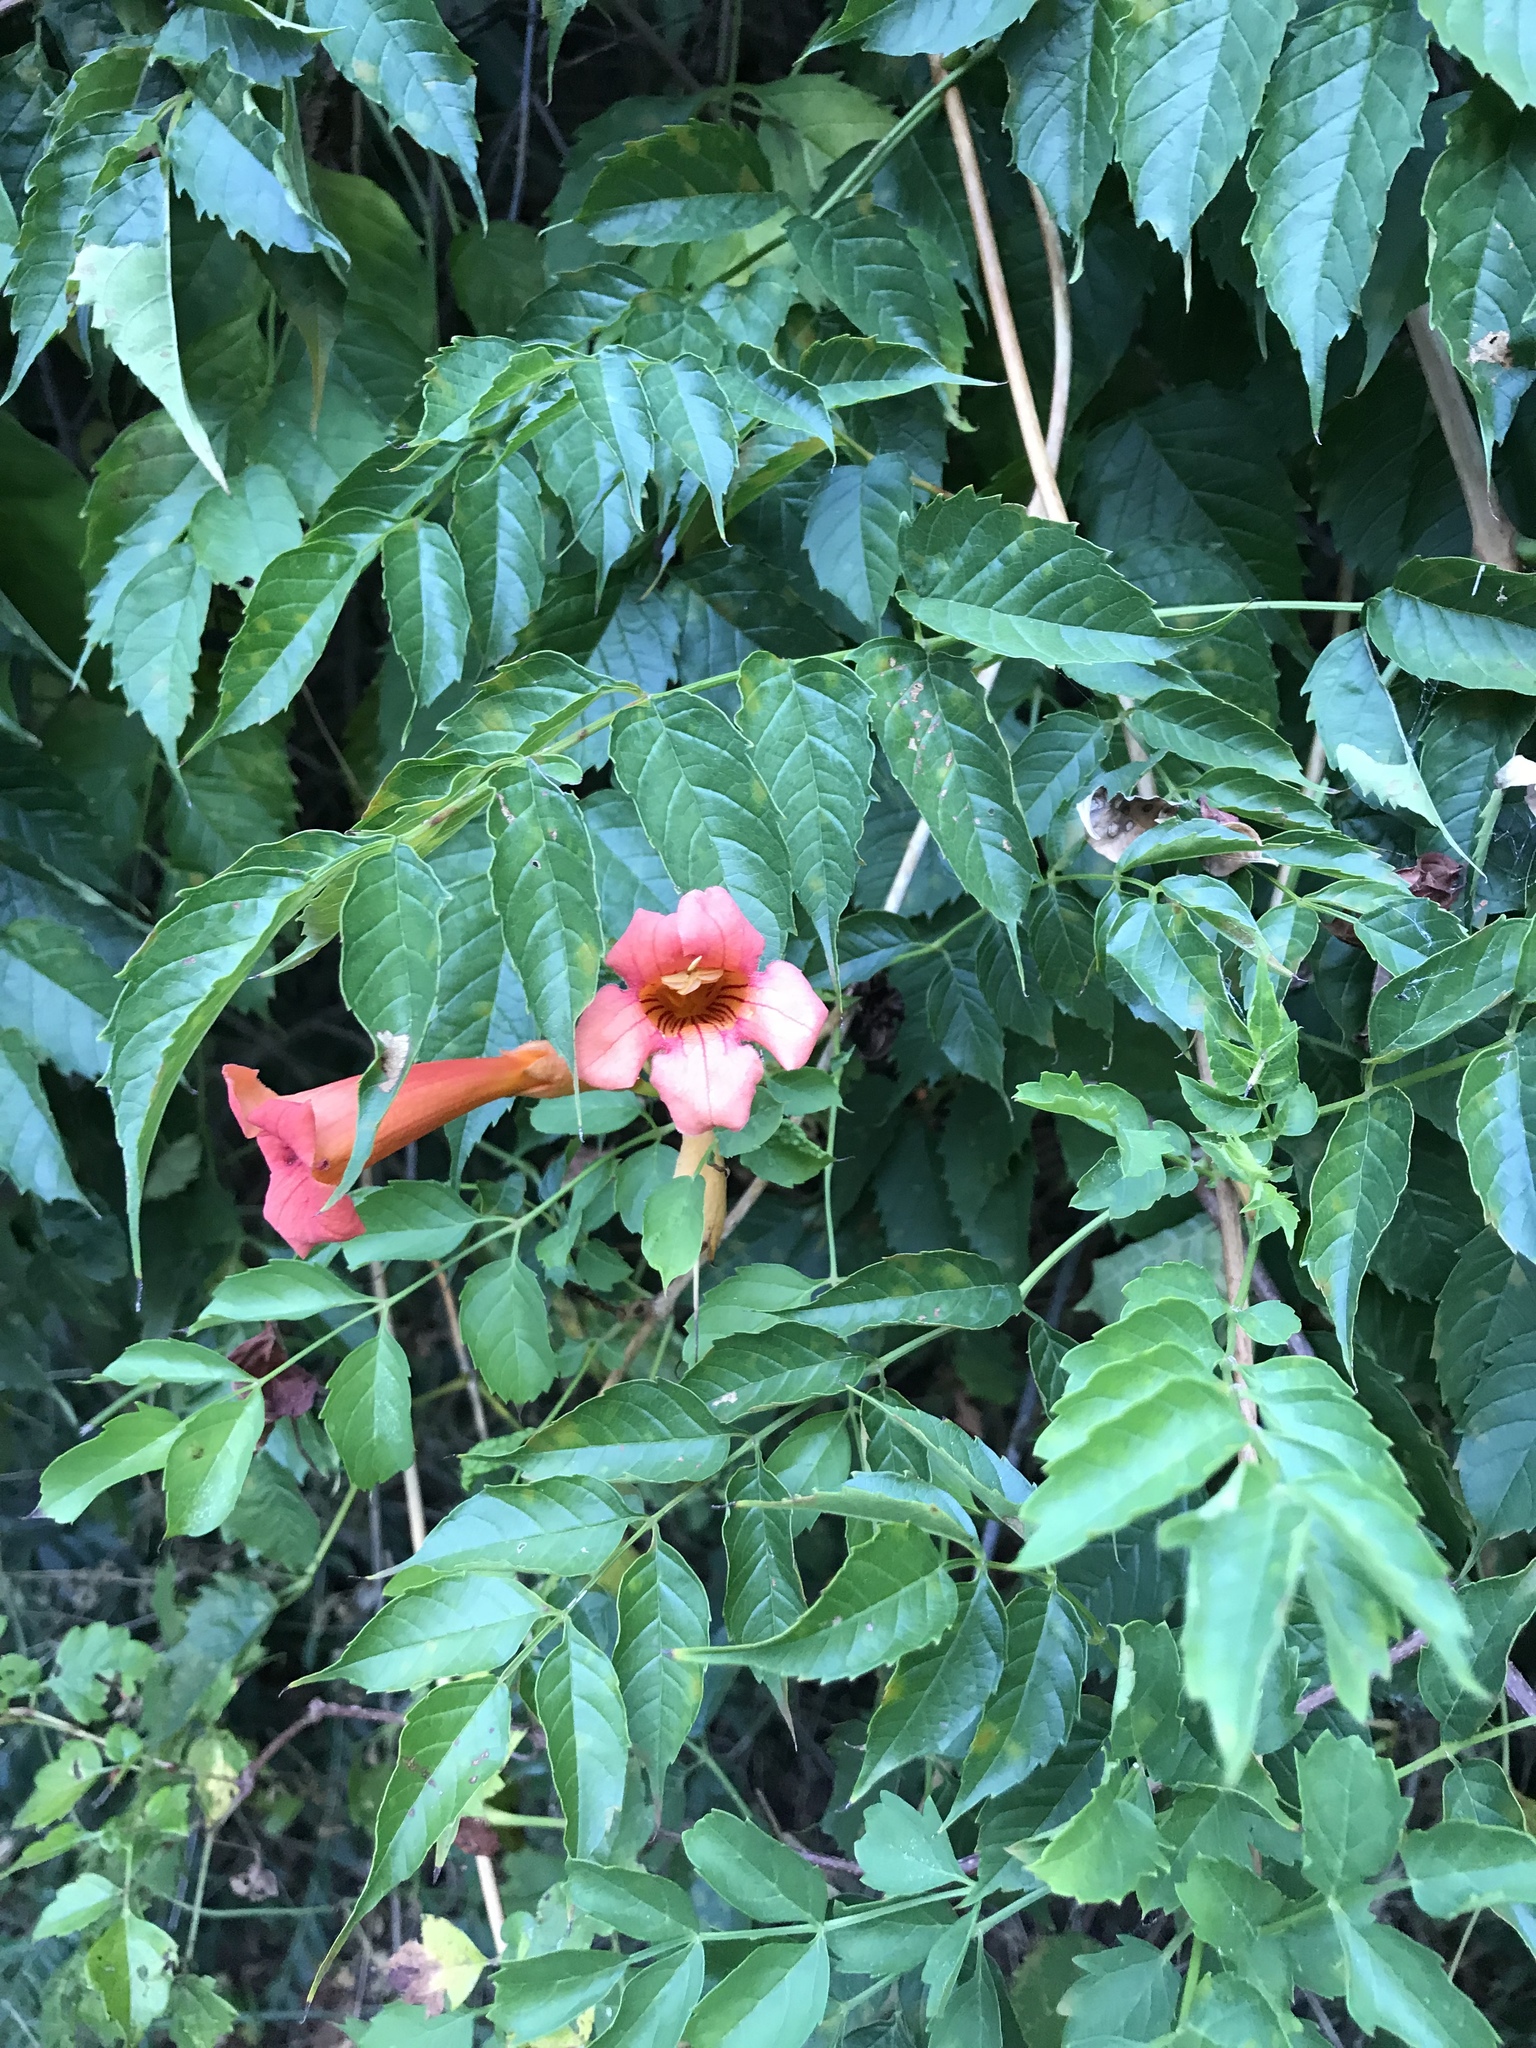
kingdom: Plantae
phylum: Tracheophyta
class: Magnoliopsida
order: Lamiales
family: Bignoniaceae
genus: Campsis
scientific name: Campsis radicans
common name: Trumpet-creeper
